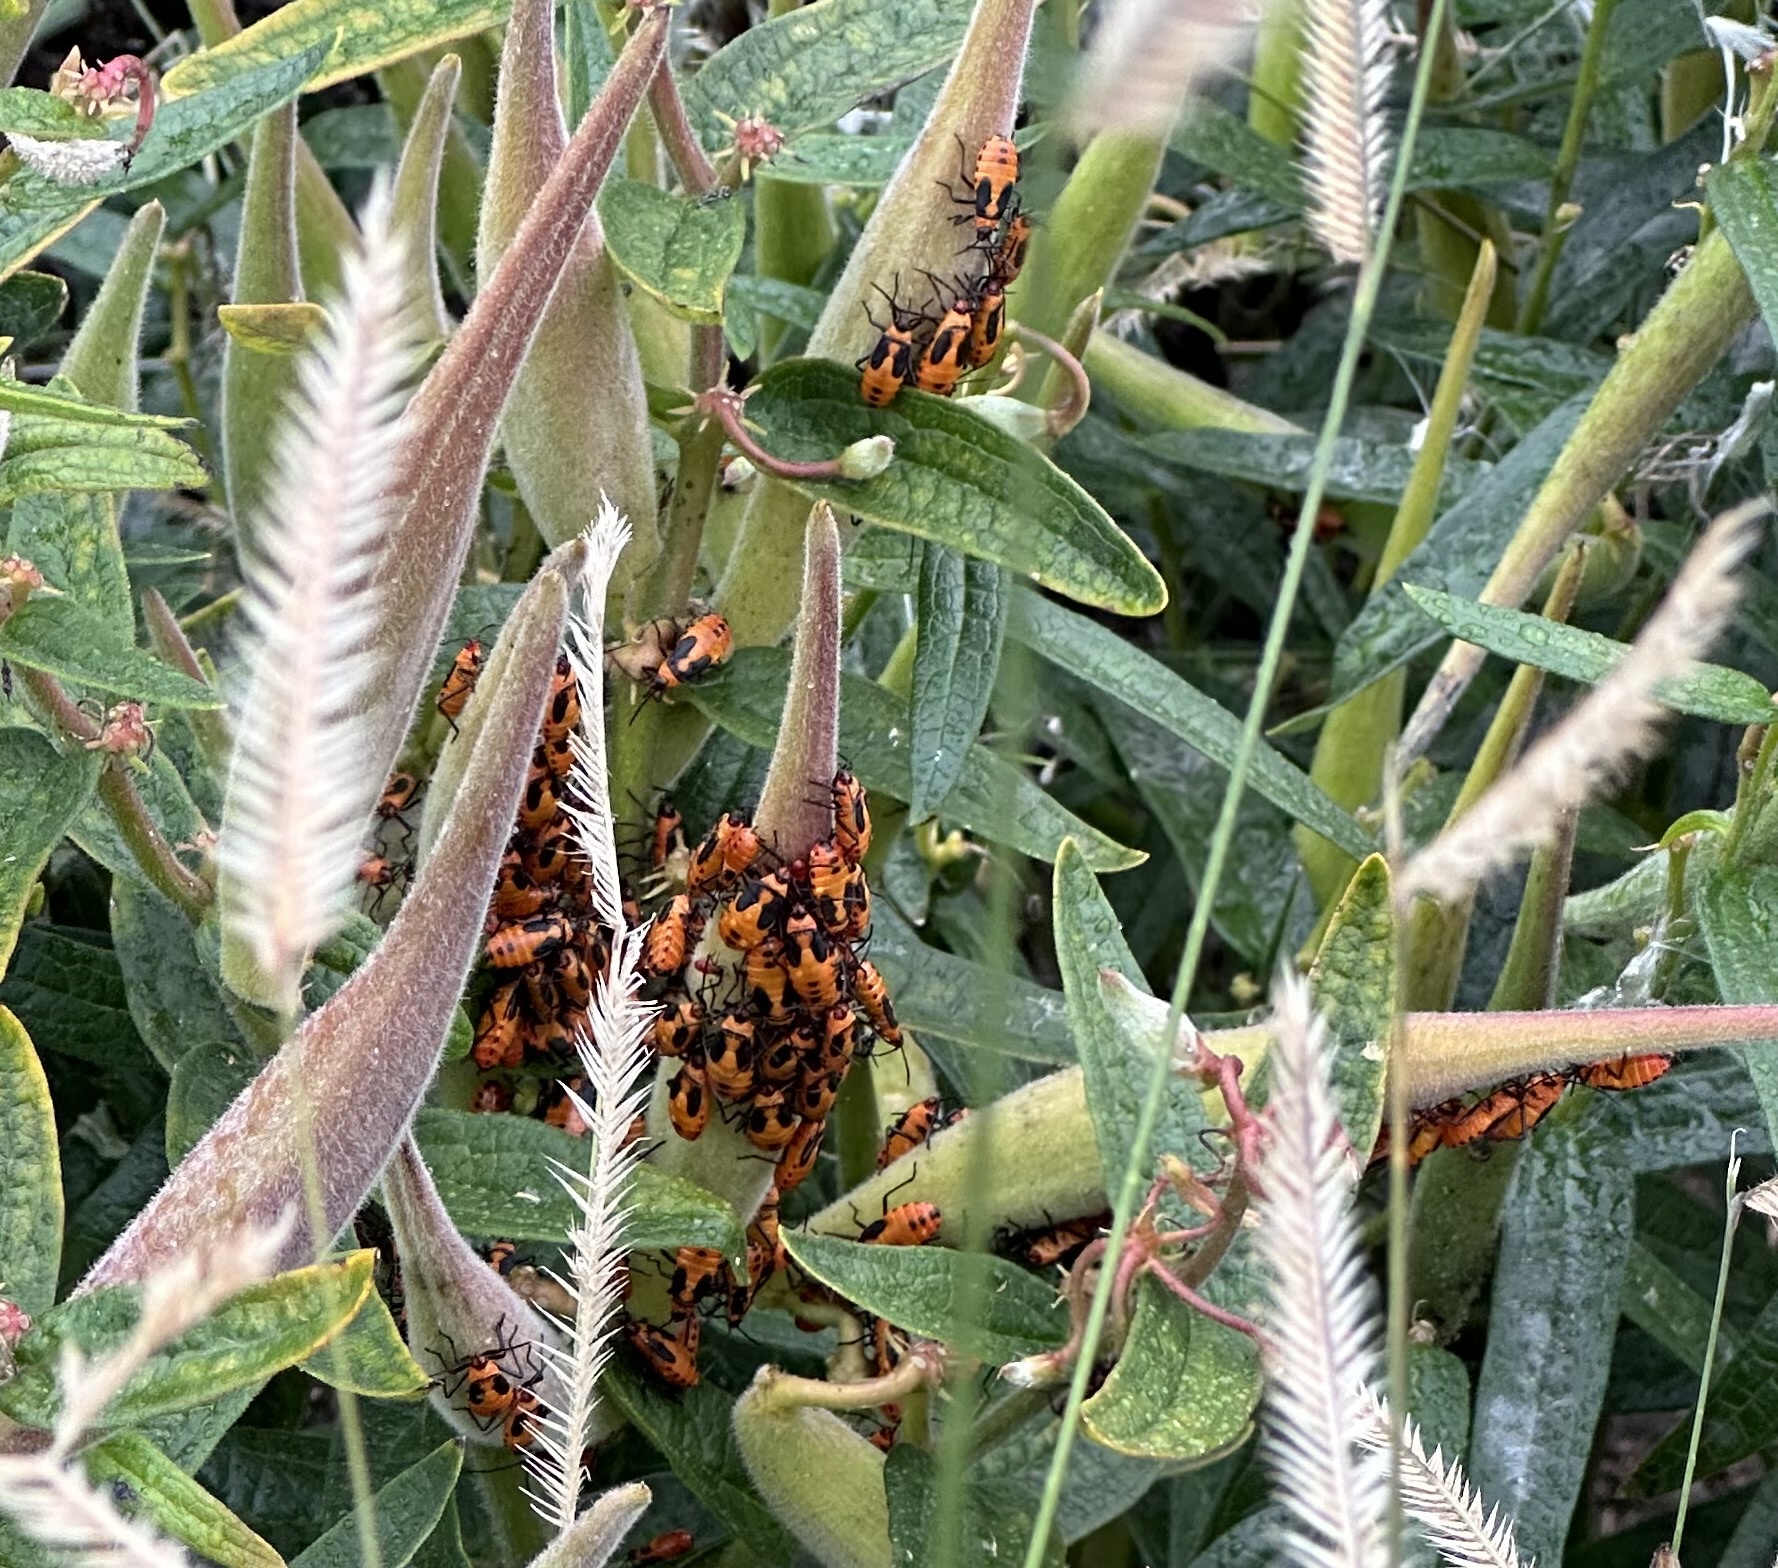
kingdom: Animalia
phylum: Arthropoda
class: Insecta
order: Hemiptera
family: Lygaeidae
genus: Oncopeltus
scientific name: Oncopeltus fasciatus
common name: Large milkweed bug
